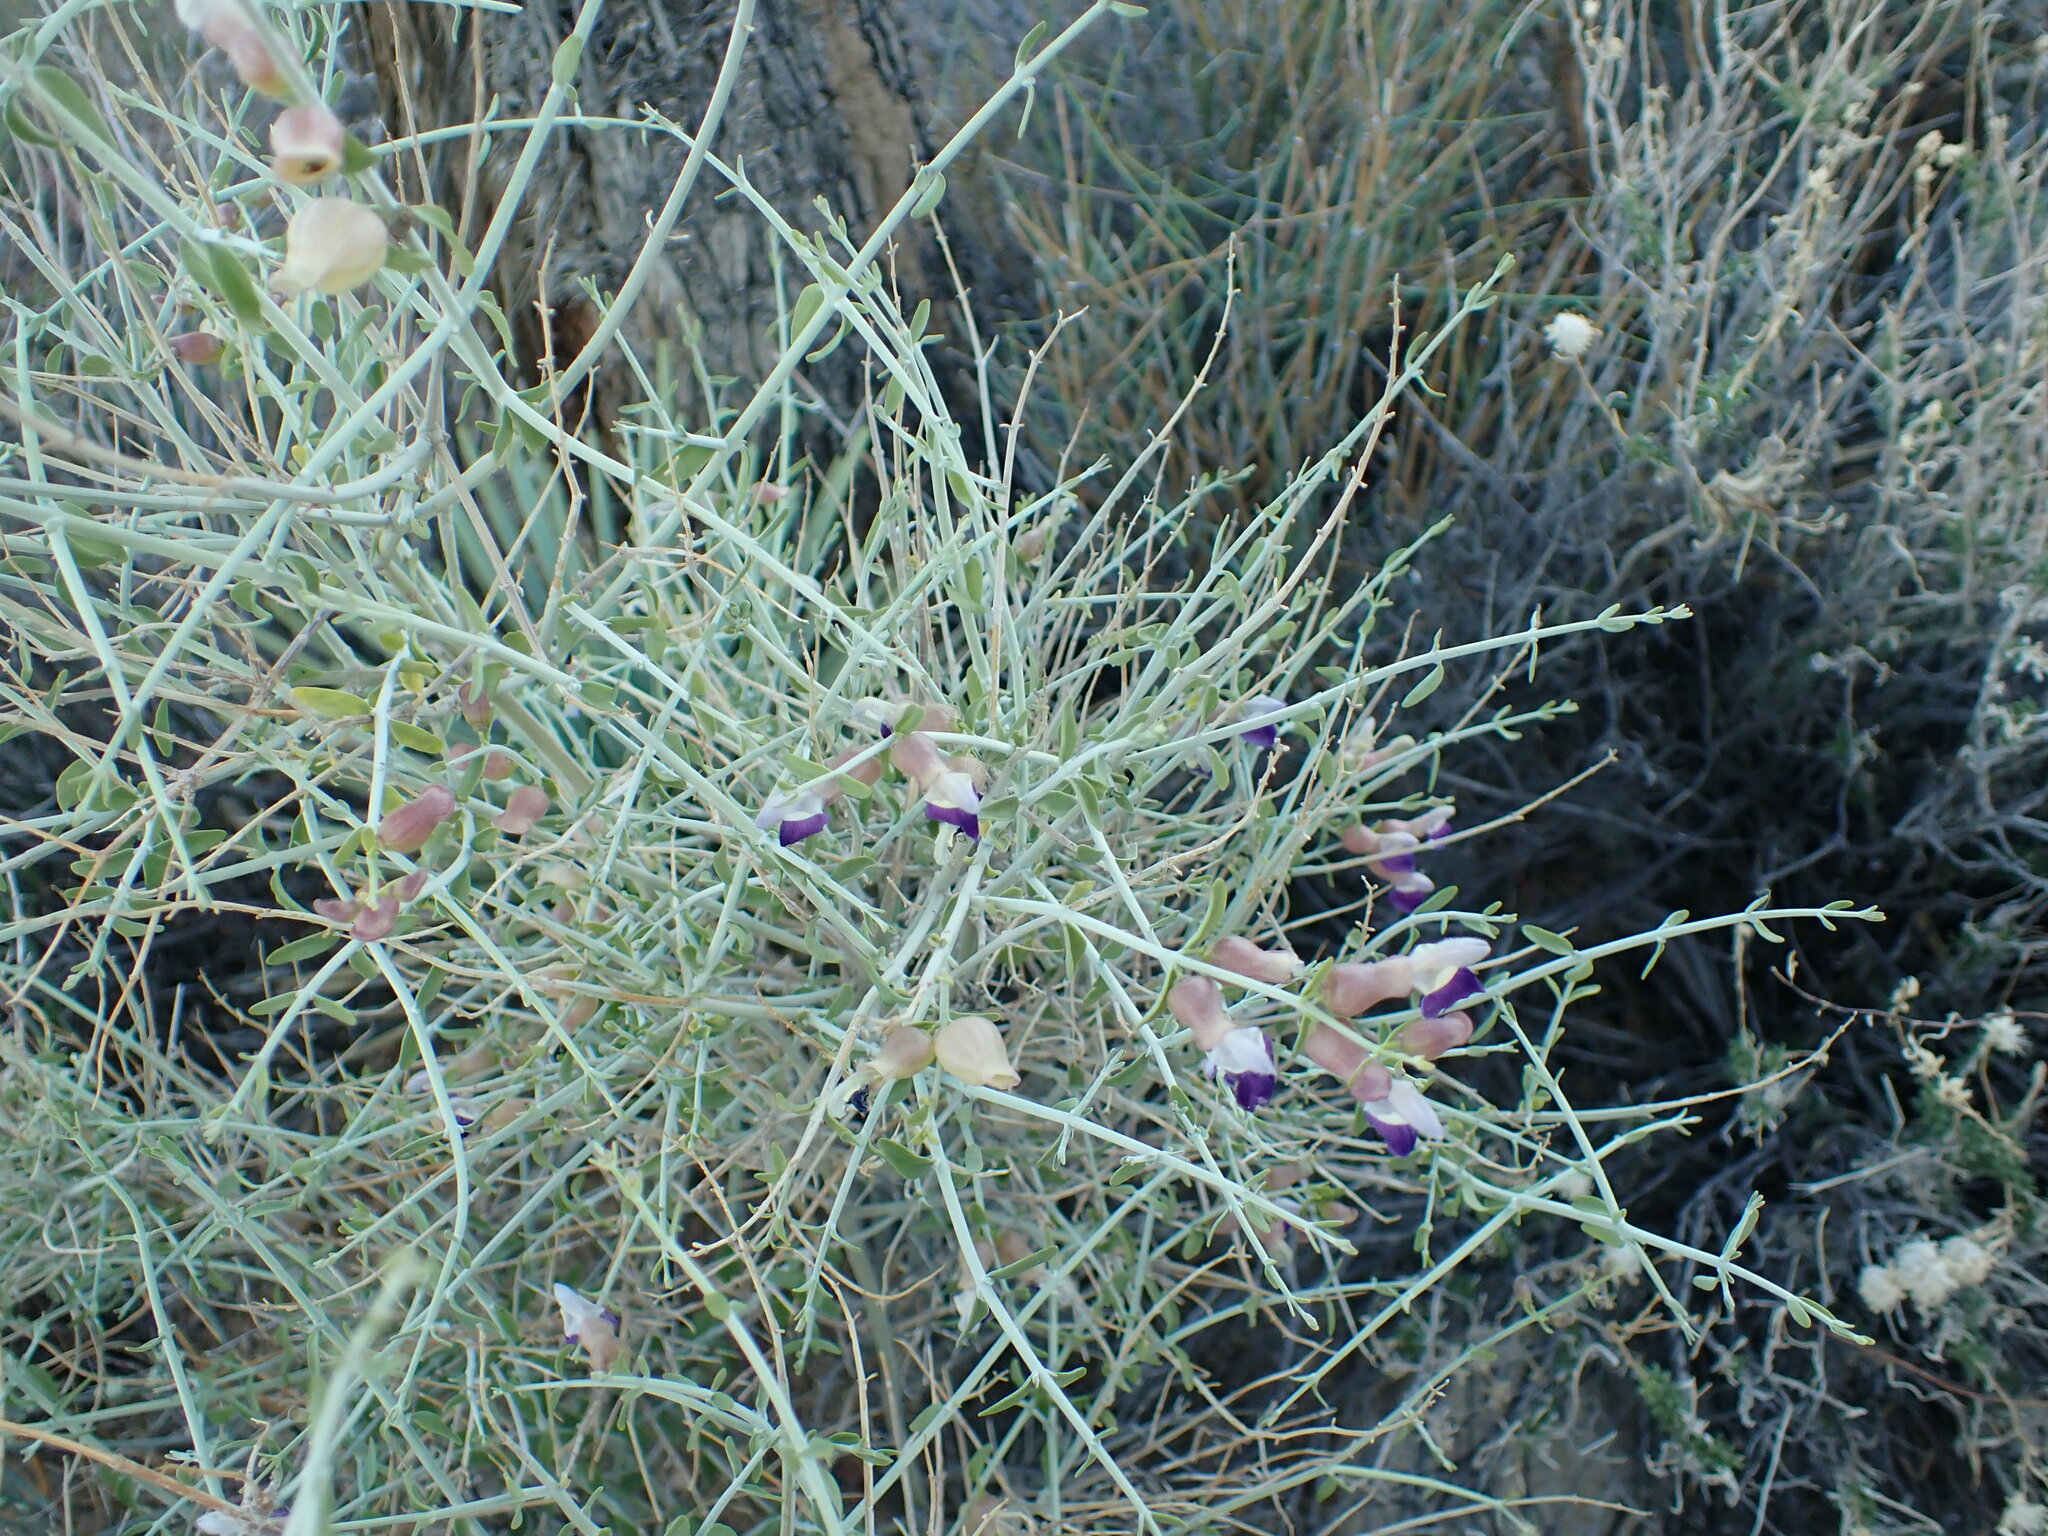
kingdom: Plantae
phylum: Tracheophyta
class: Magnoliopsida
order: Lamiales
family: Lamiaceae
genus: Scutellaria
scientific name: Scutellaria mexicana
